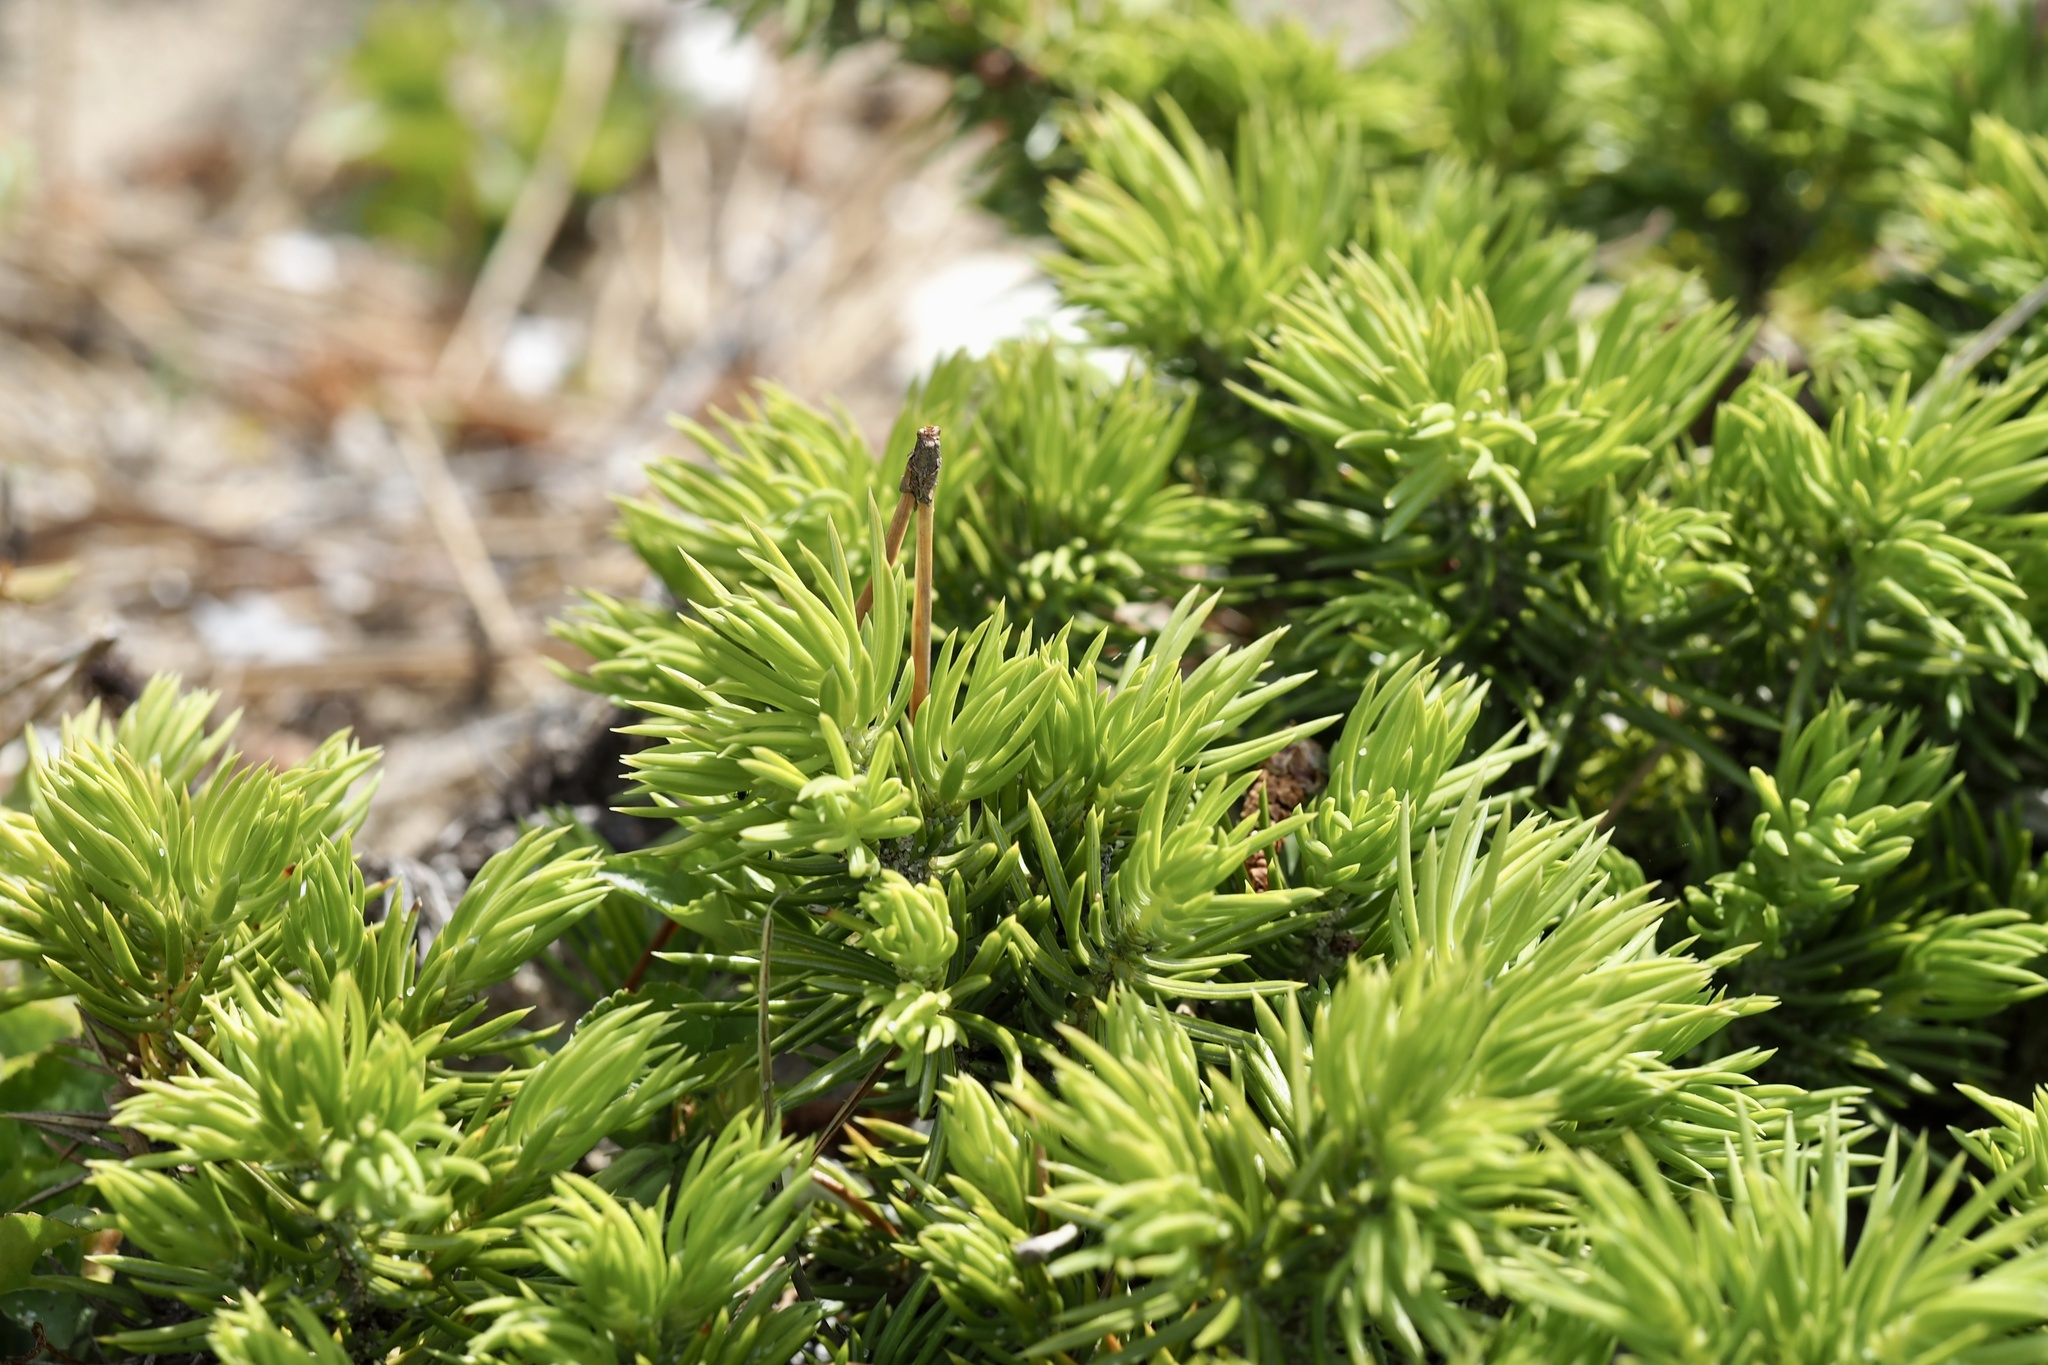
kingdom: Plantae
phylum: Tracheophyta
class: Pinopsida
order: Pinales
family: Cupressaceae
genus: Juniperus
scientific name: Juniperus rigida
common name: Needle juniper
